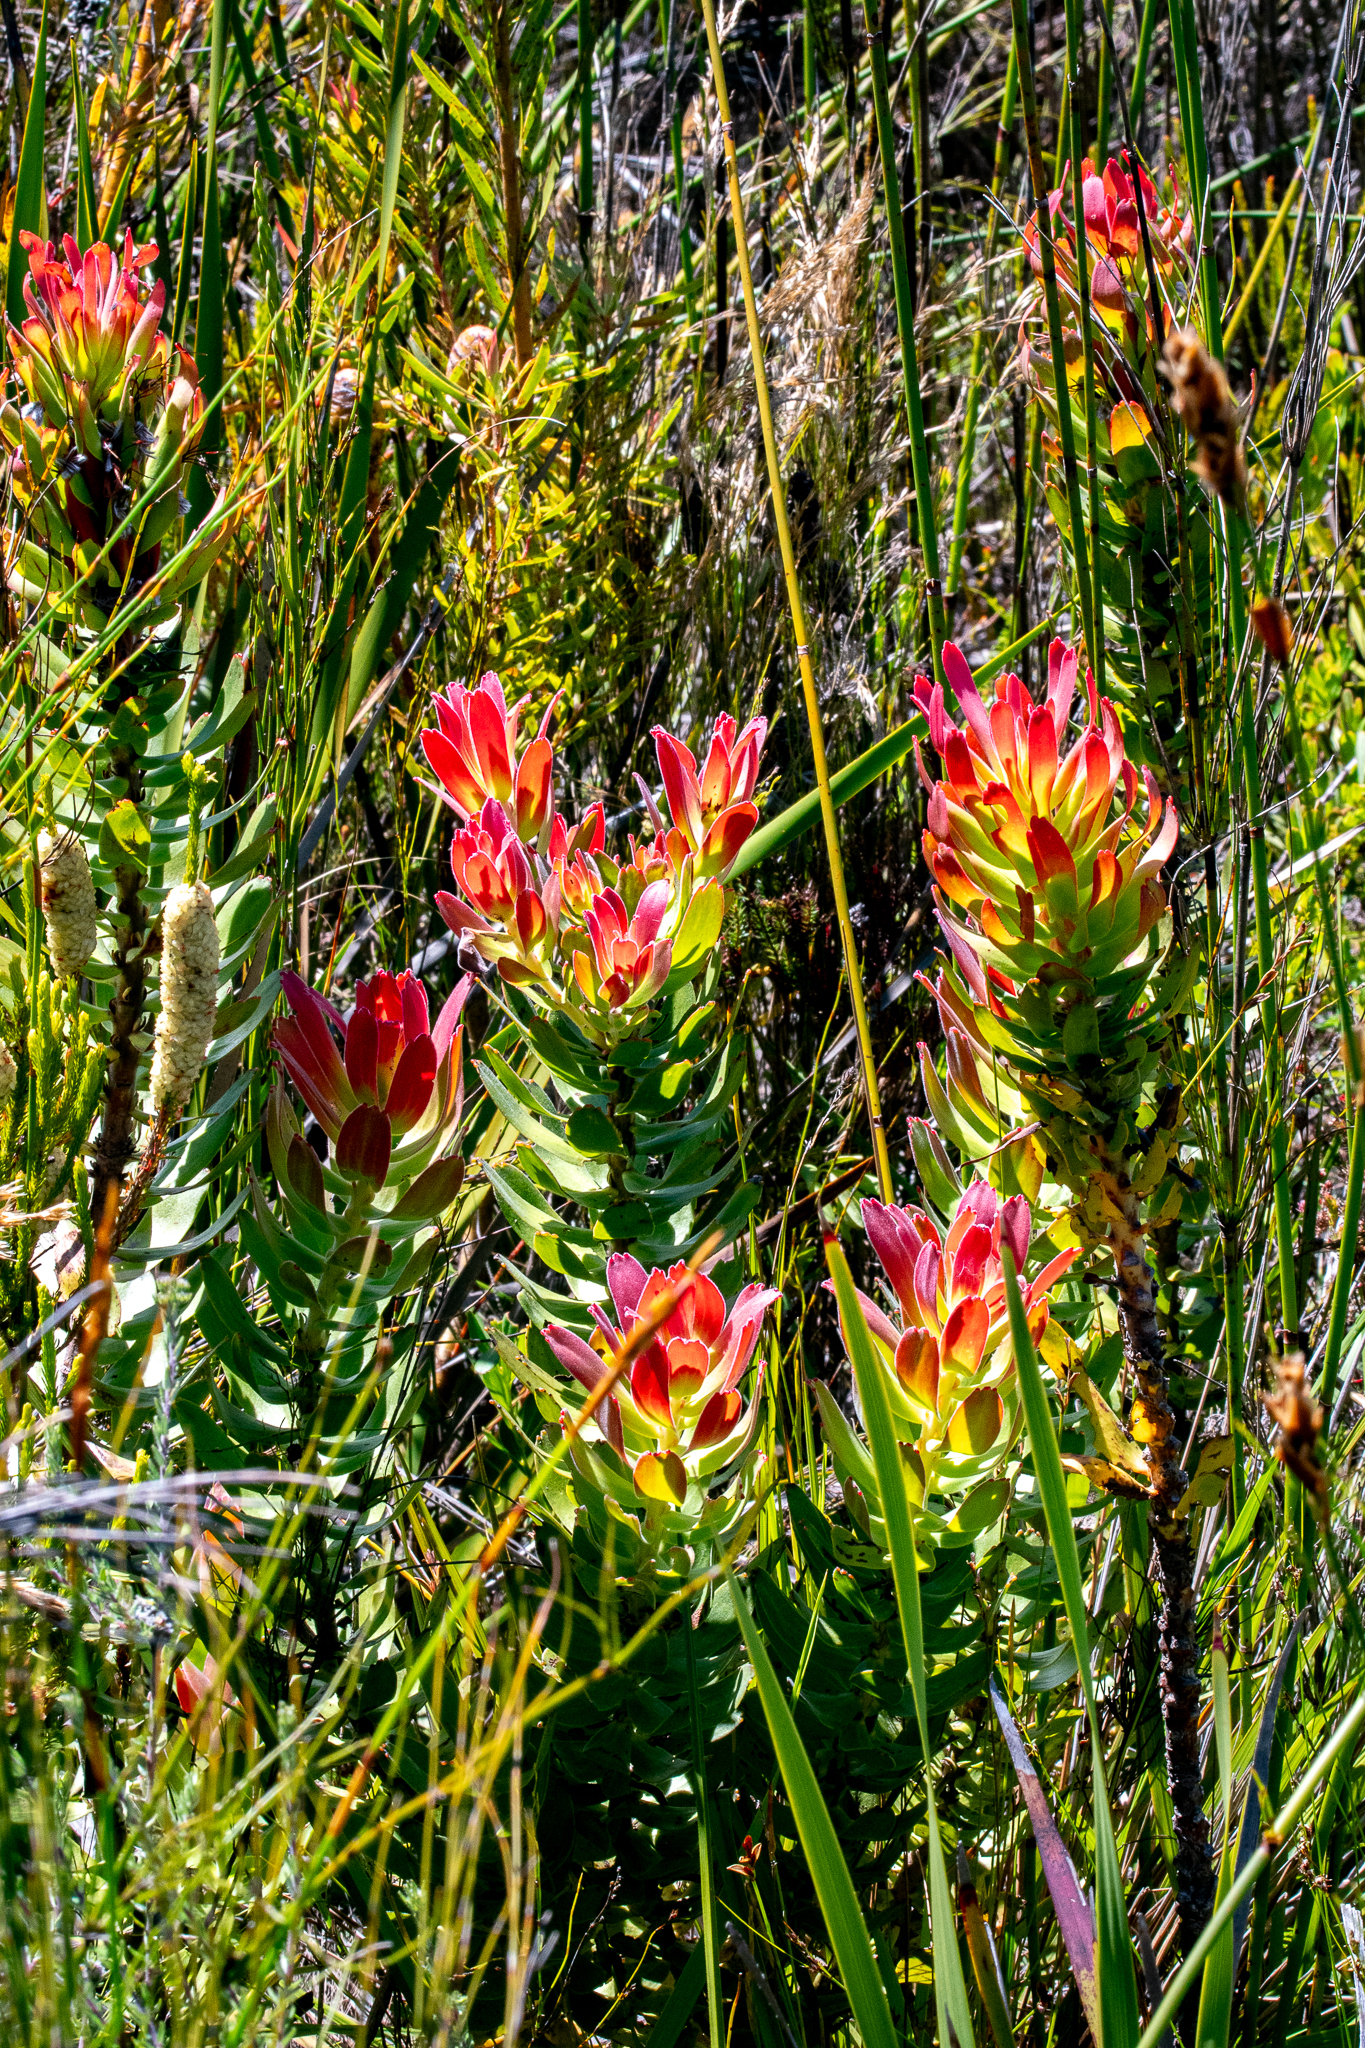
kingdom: Plantae
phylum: Tracheophyta
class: Magnoliopsida
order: Proteales
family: Proteaceae
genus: Mimetes
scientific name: Mimetes cucullatus
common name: Common pagoda
